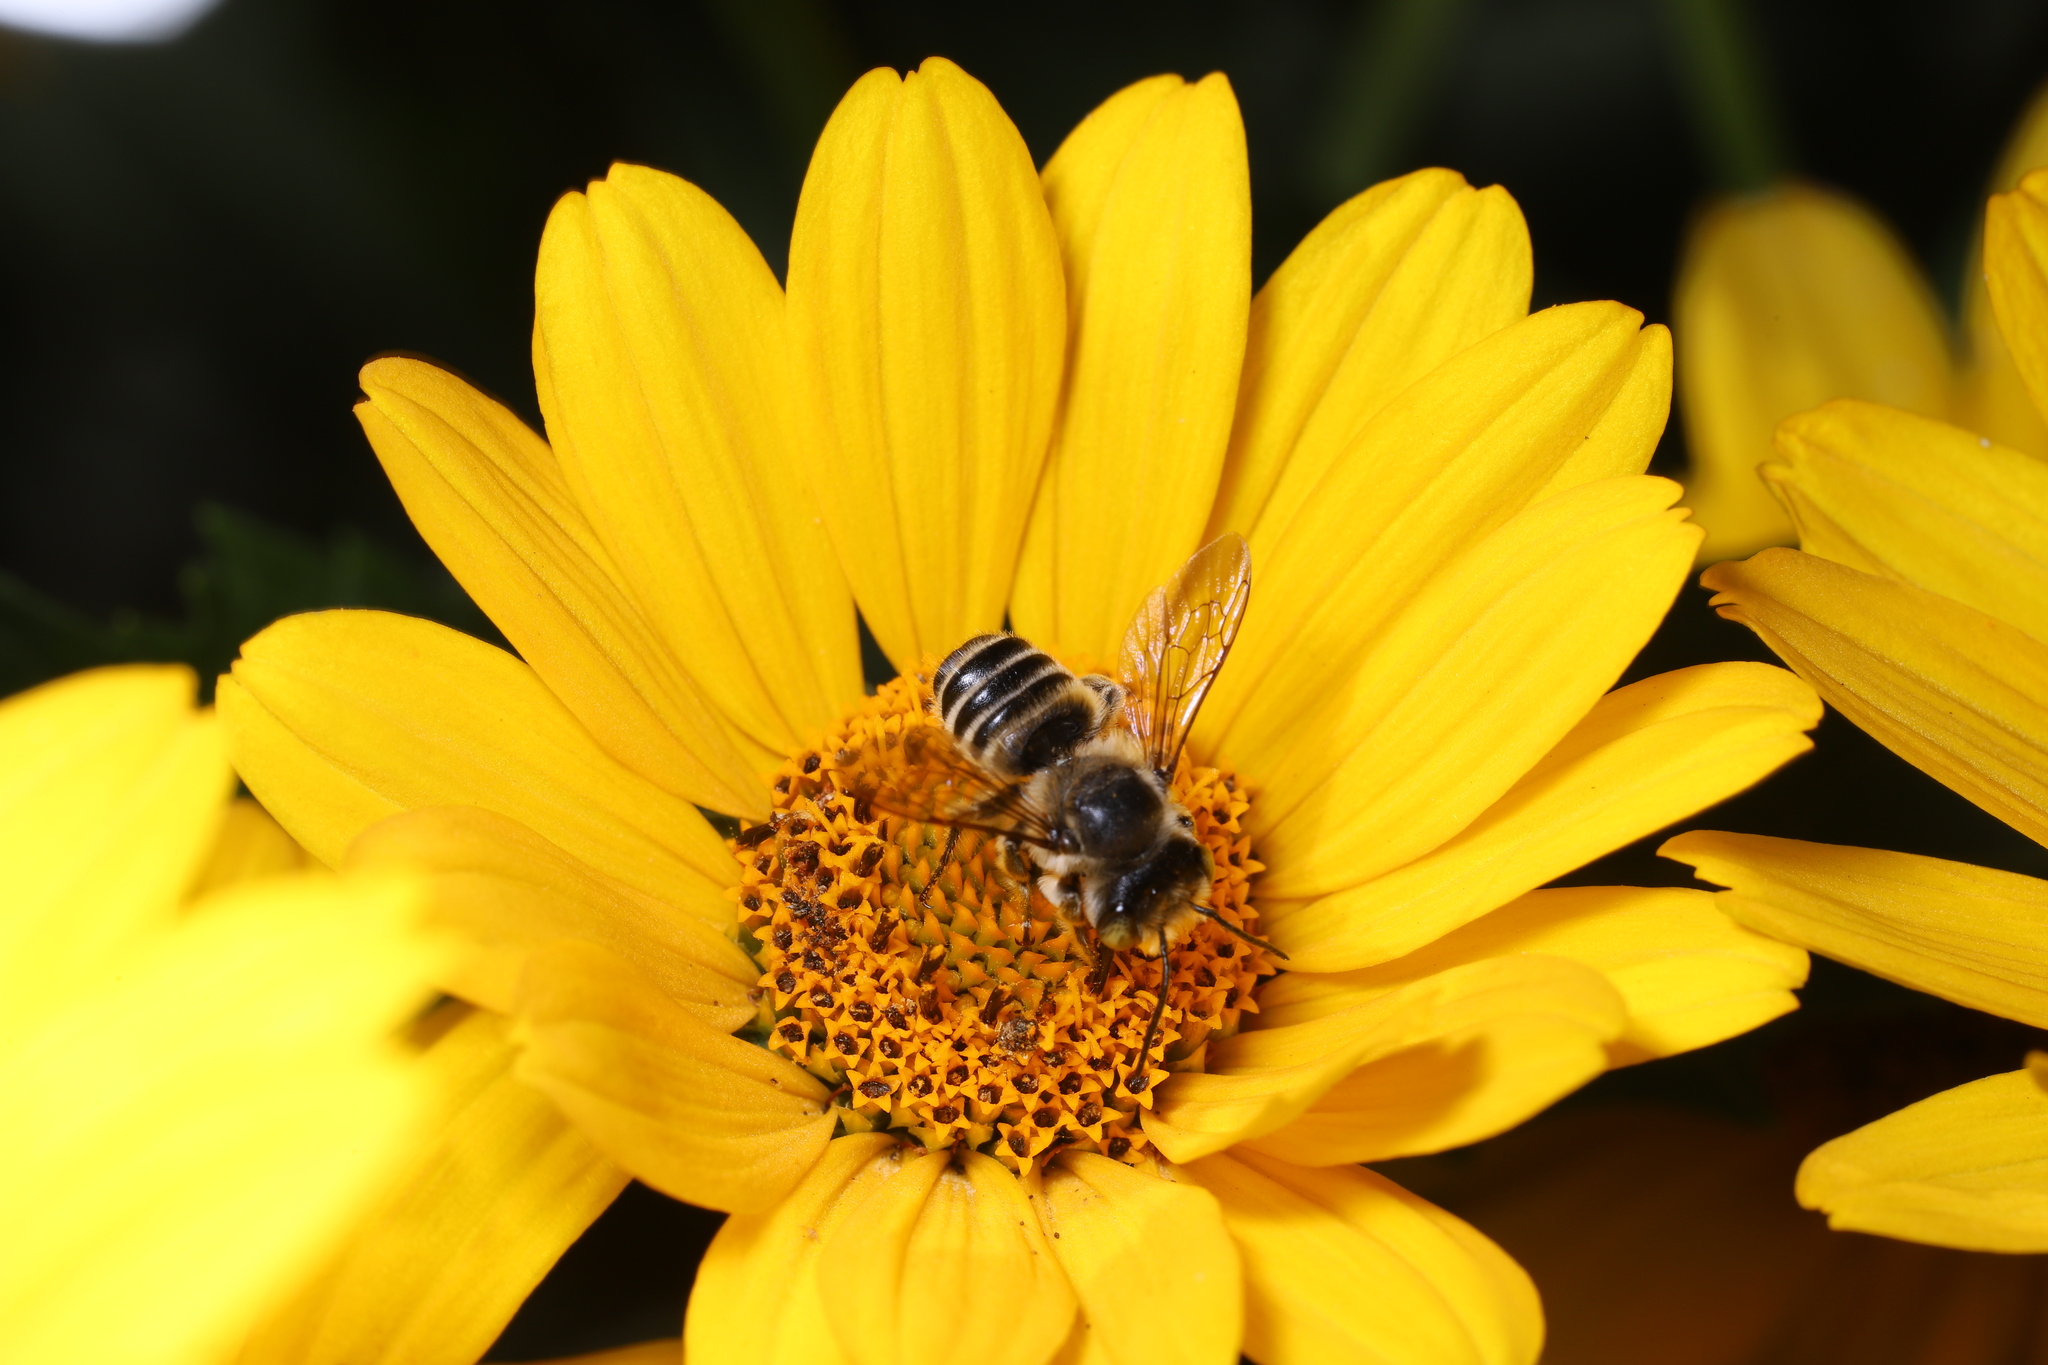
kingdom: Animalia
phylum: Arthropoda
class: Insecta
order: Hymenoptera
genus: Eutricharaea
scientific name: Eutricharaea
